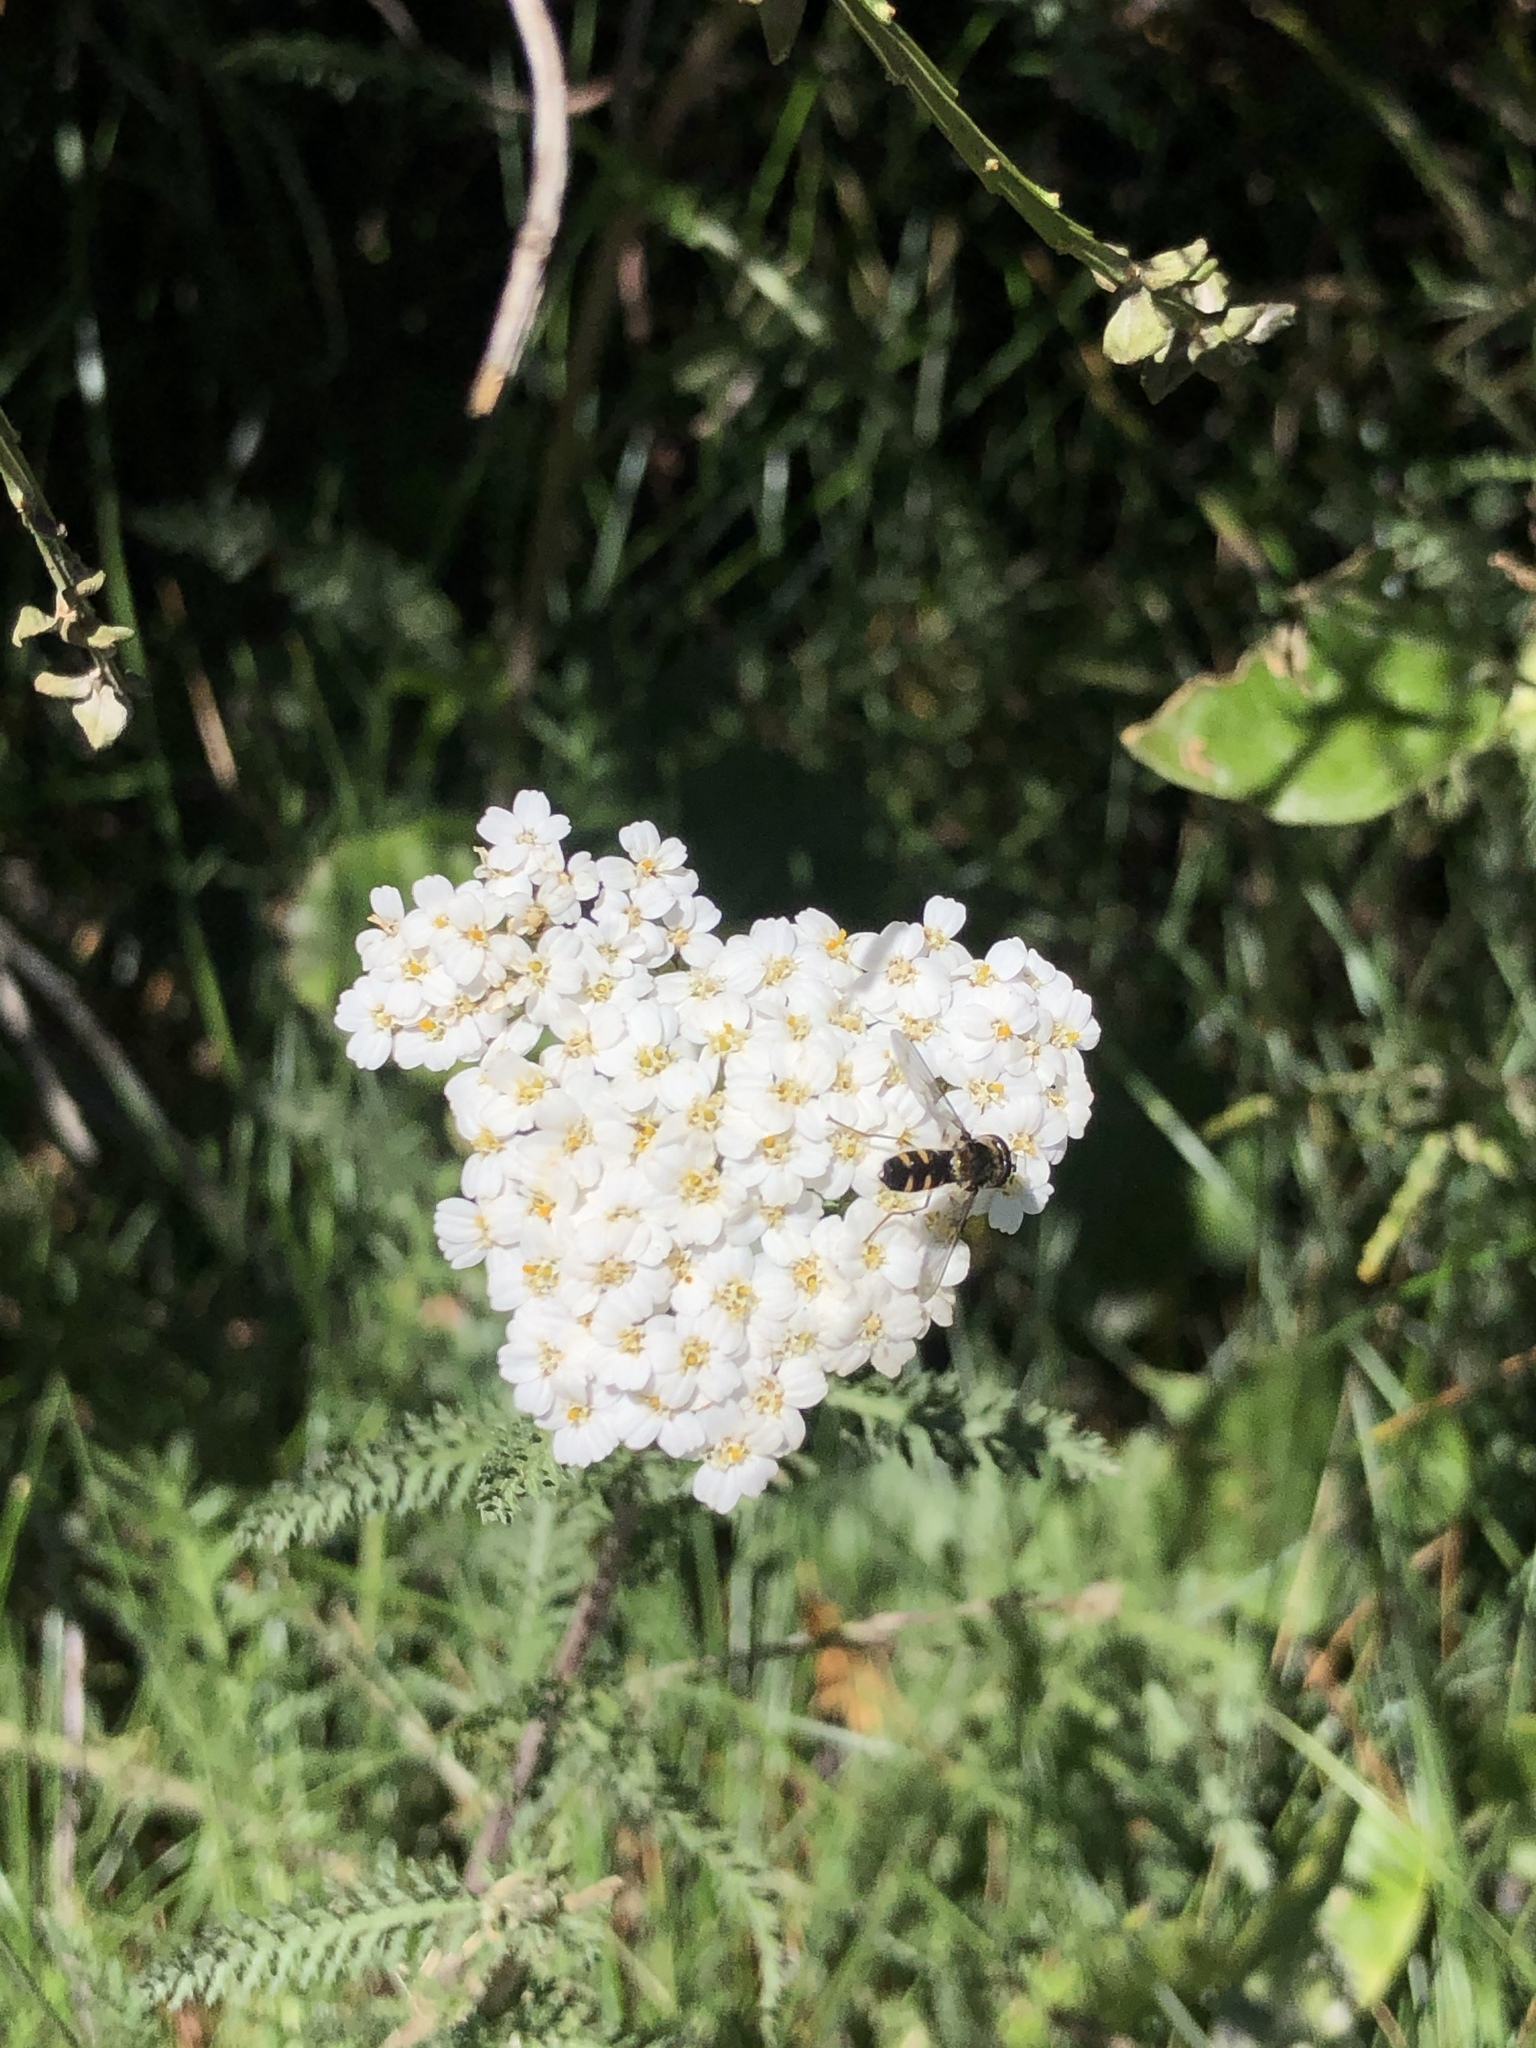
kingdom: Animalia
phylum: Arthropoda
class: Insecta
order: Diptera
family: Syrphidae
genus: Melangyna
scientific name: Melangyna novaezelandiae
